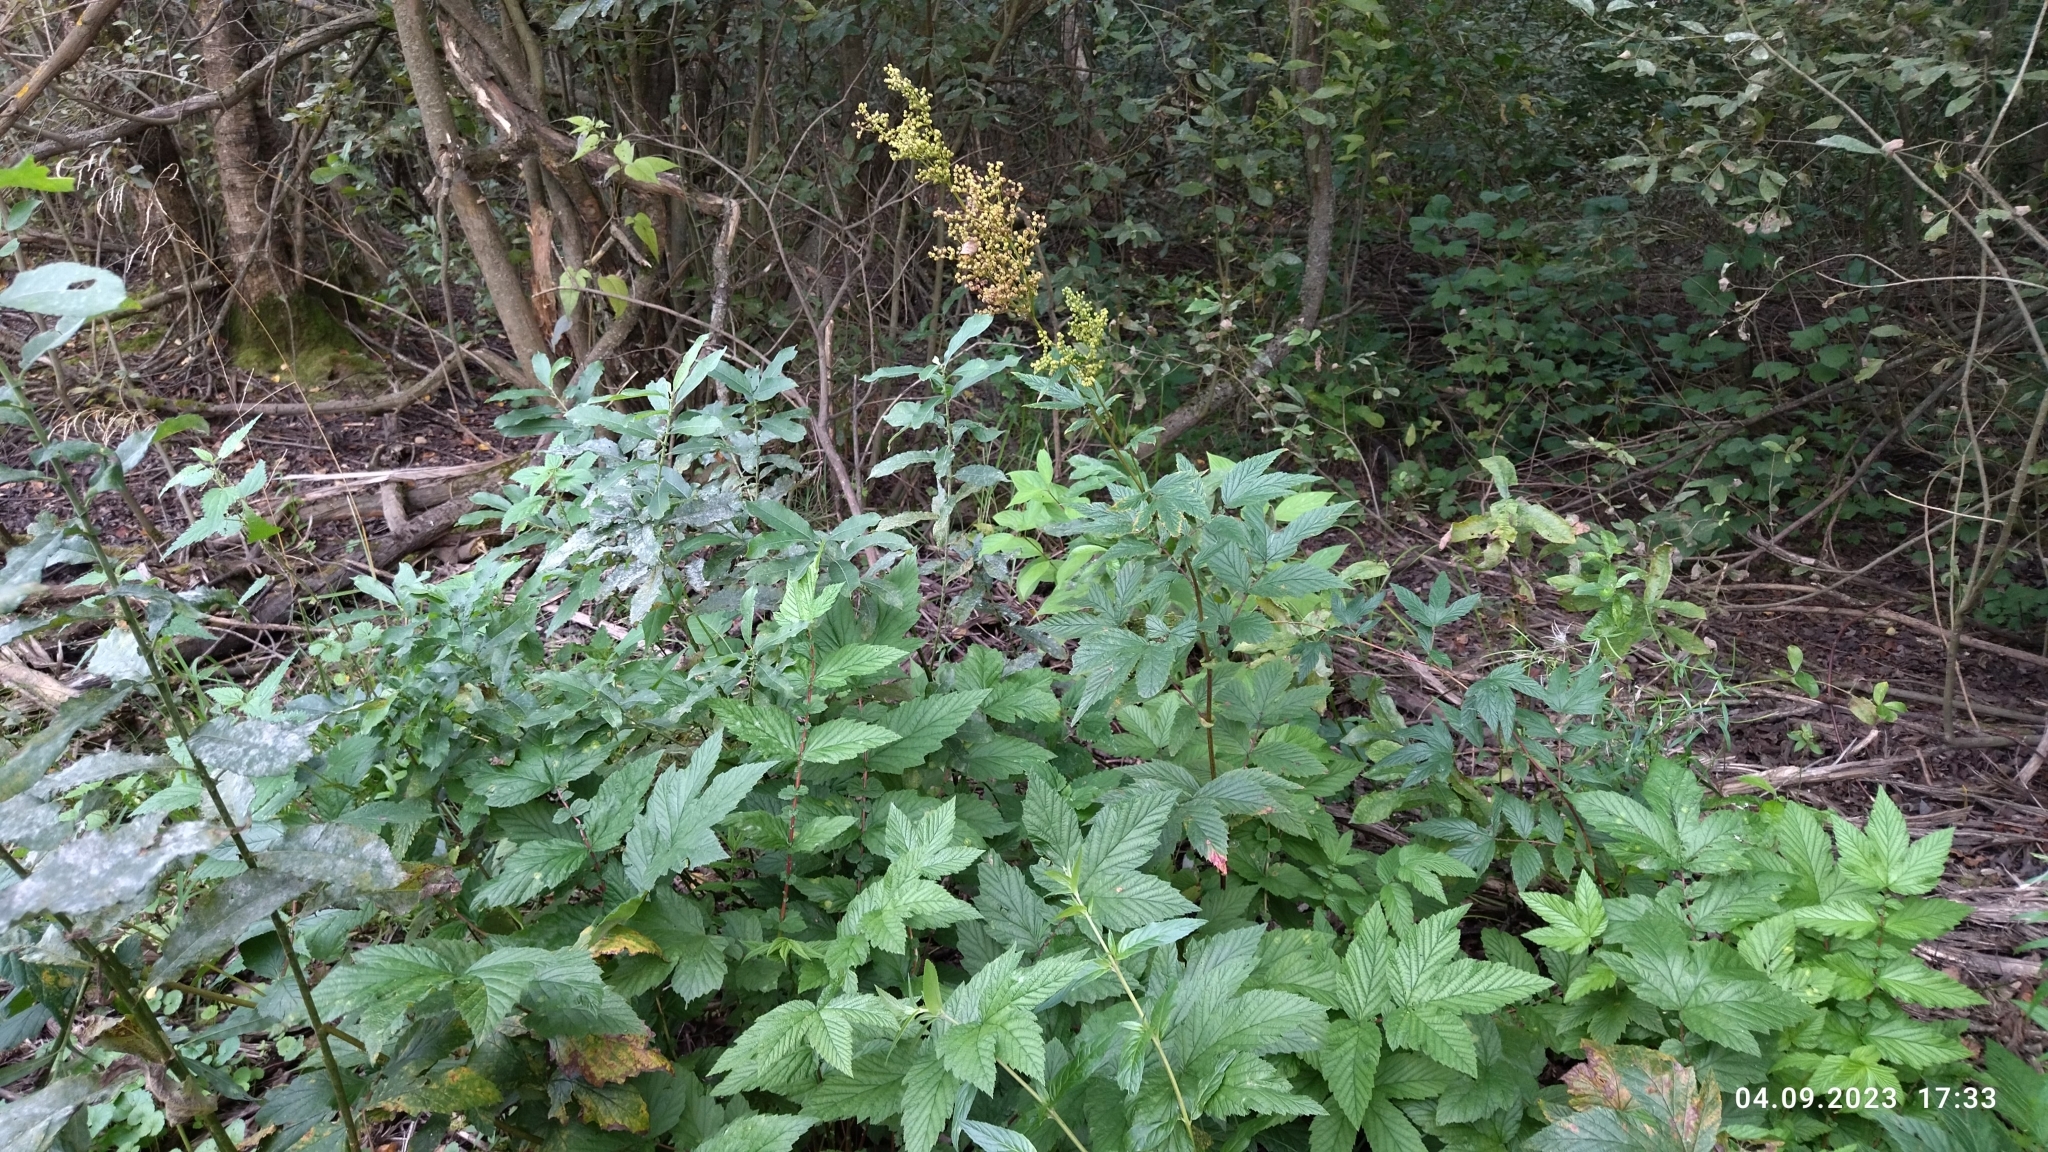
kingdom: Plantae
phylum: Tracheophyta
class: Magnoliopsida
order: Rosales
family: Rosaceae
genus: Filipendula
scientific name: Filipendula ulmaria
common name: Meadowsweet
